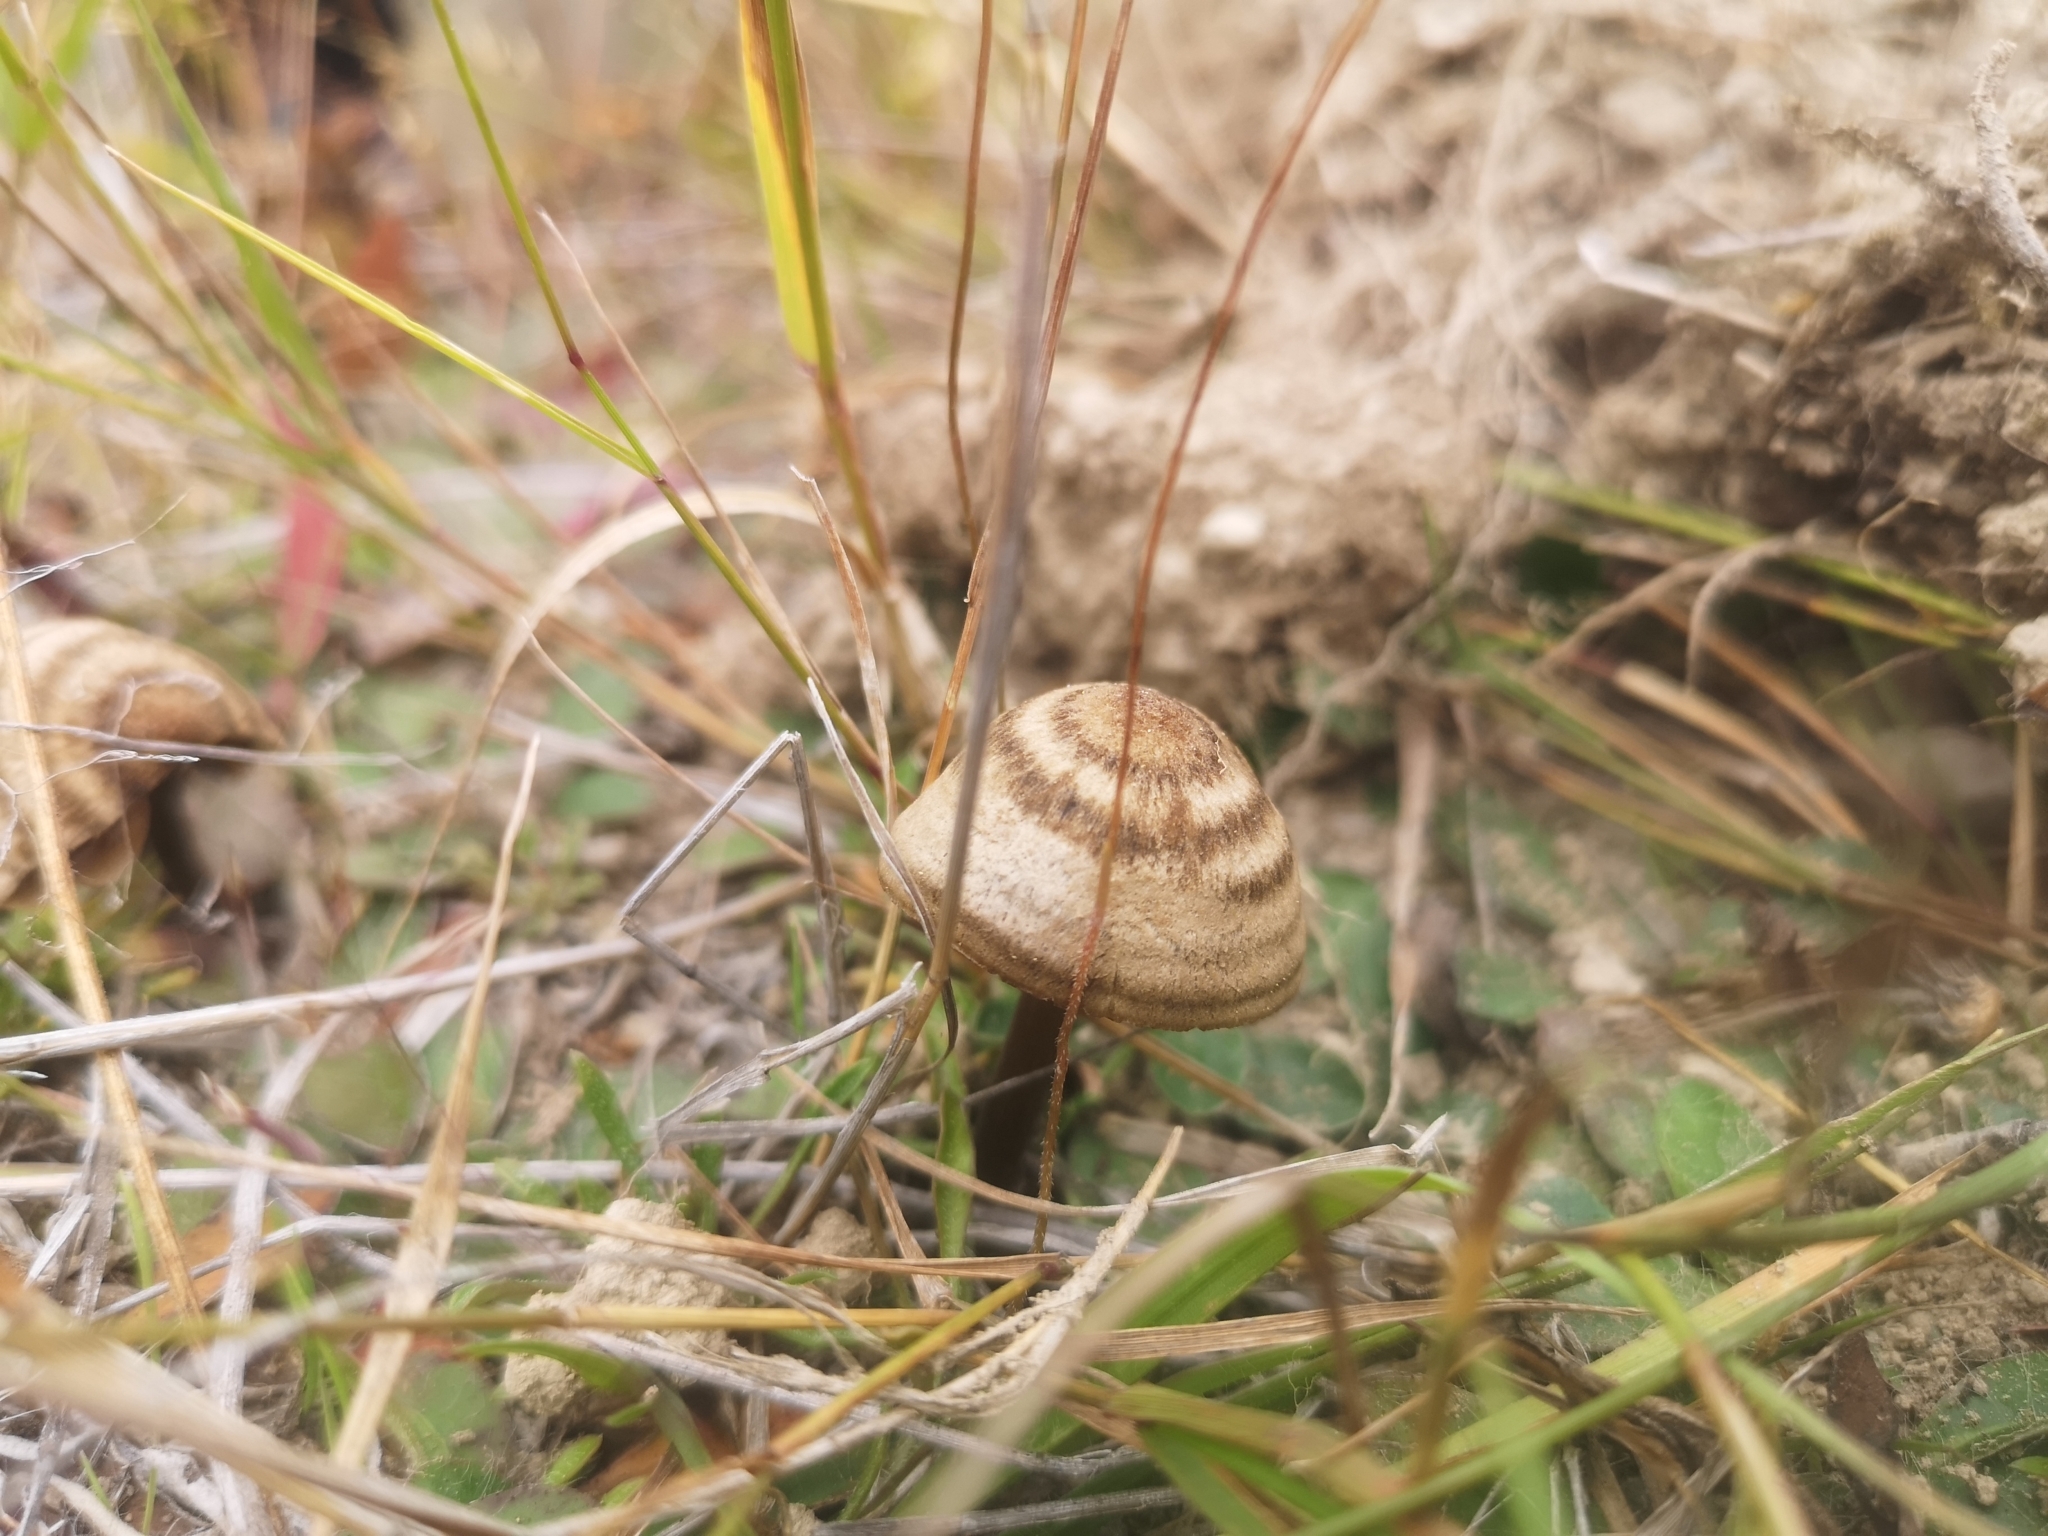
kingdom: Fungi
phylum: Basidiomycota
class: Agaricomycetes
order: Agaricales
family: Entolomataceae
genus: Entoloma
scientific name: Entoloma perzonatum
